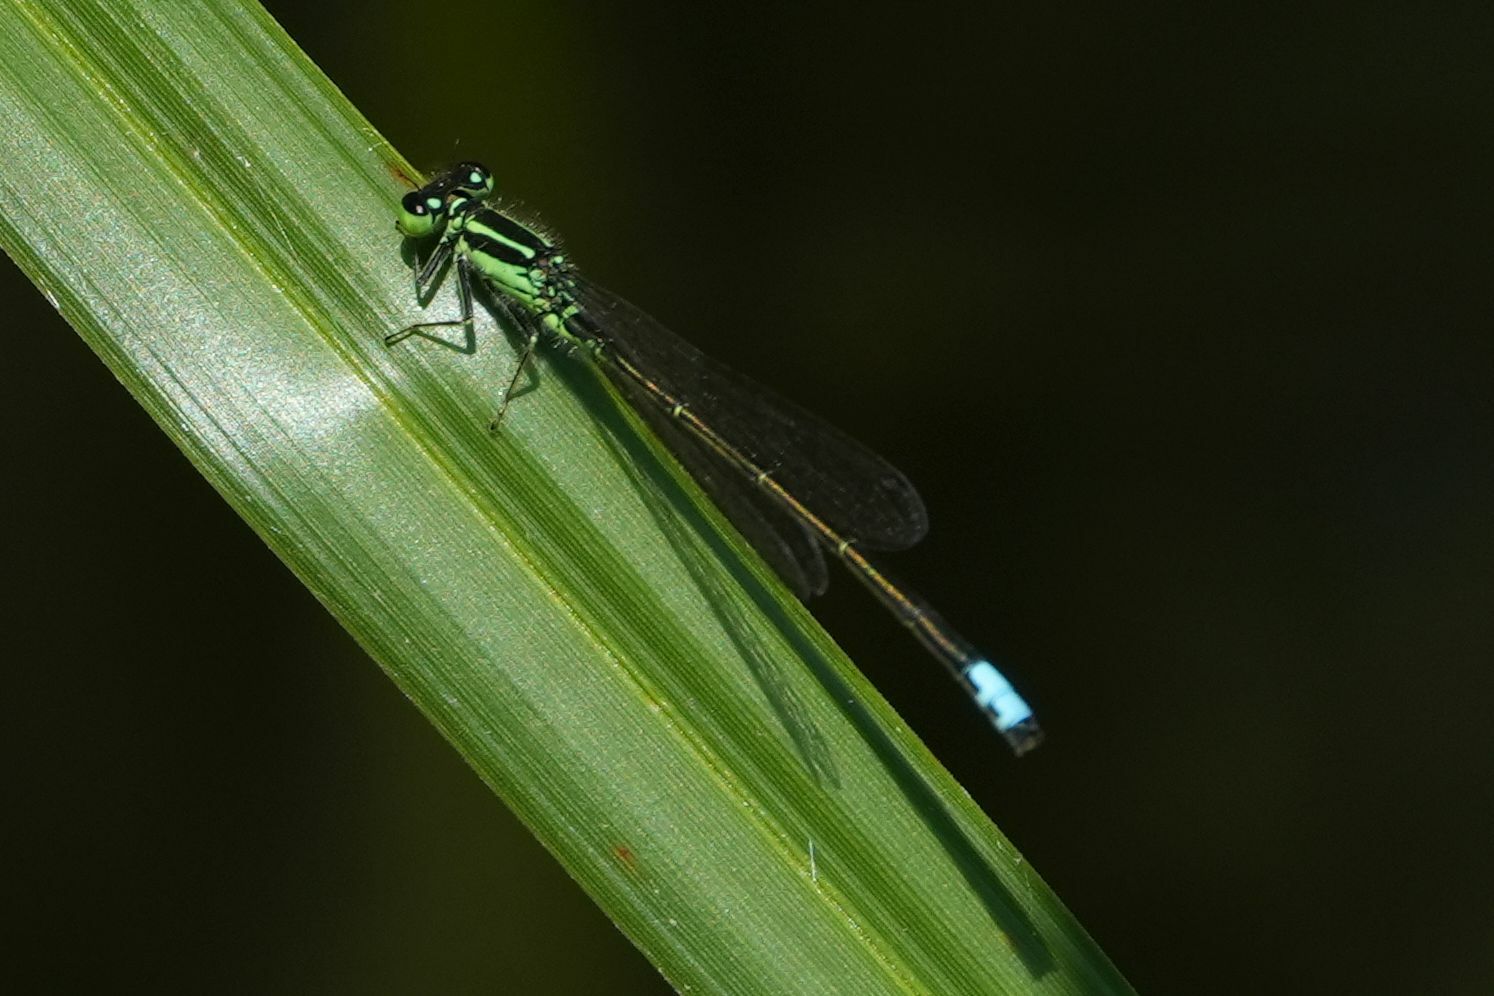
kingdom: Animalia
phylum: Arthropoda
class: Insecta
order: Odonata
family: Coenagrionidae
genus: Ischnura
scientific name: Ischnura verticalis
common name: Eastern forktail
